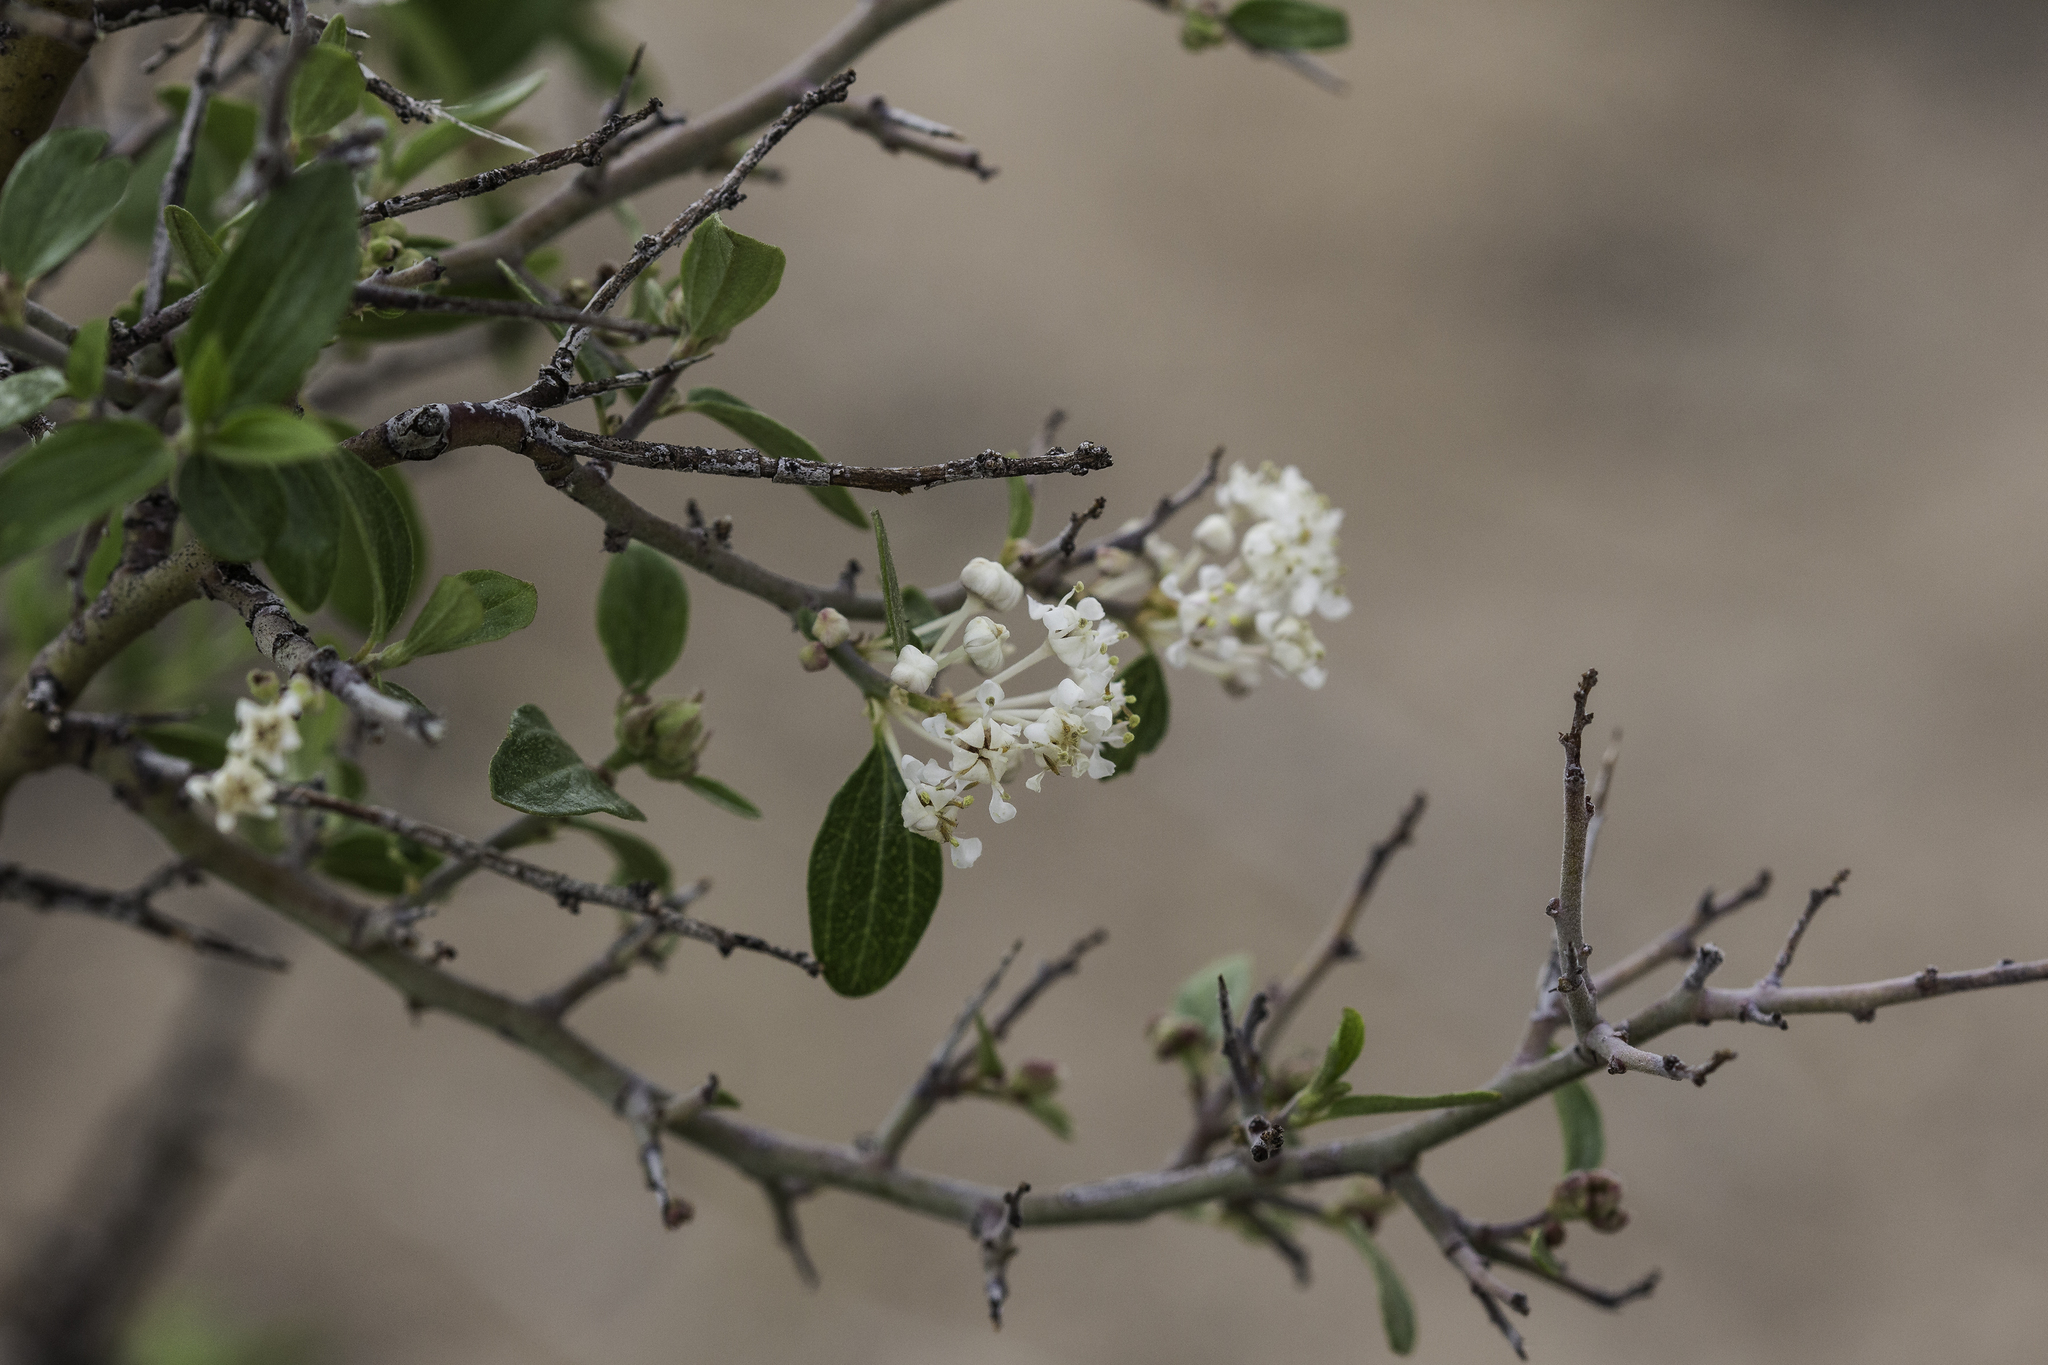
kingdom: Plantae
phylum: Tracheophyta
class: Magnoliopsida
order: Rosales
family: Rhamnaceae
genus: Ceanothus
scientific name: Ceanothus fendleri
